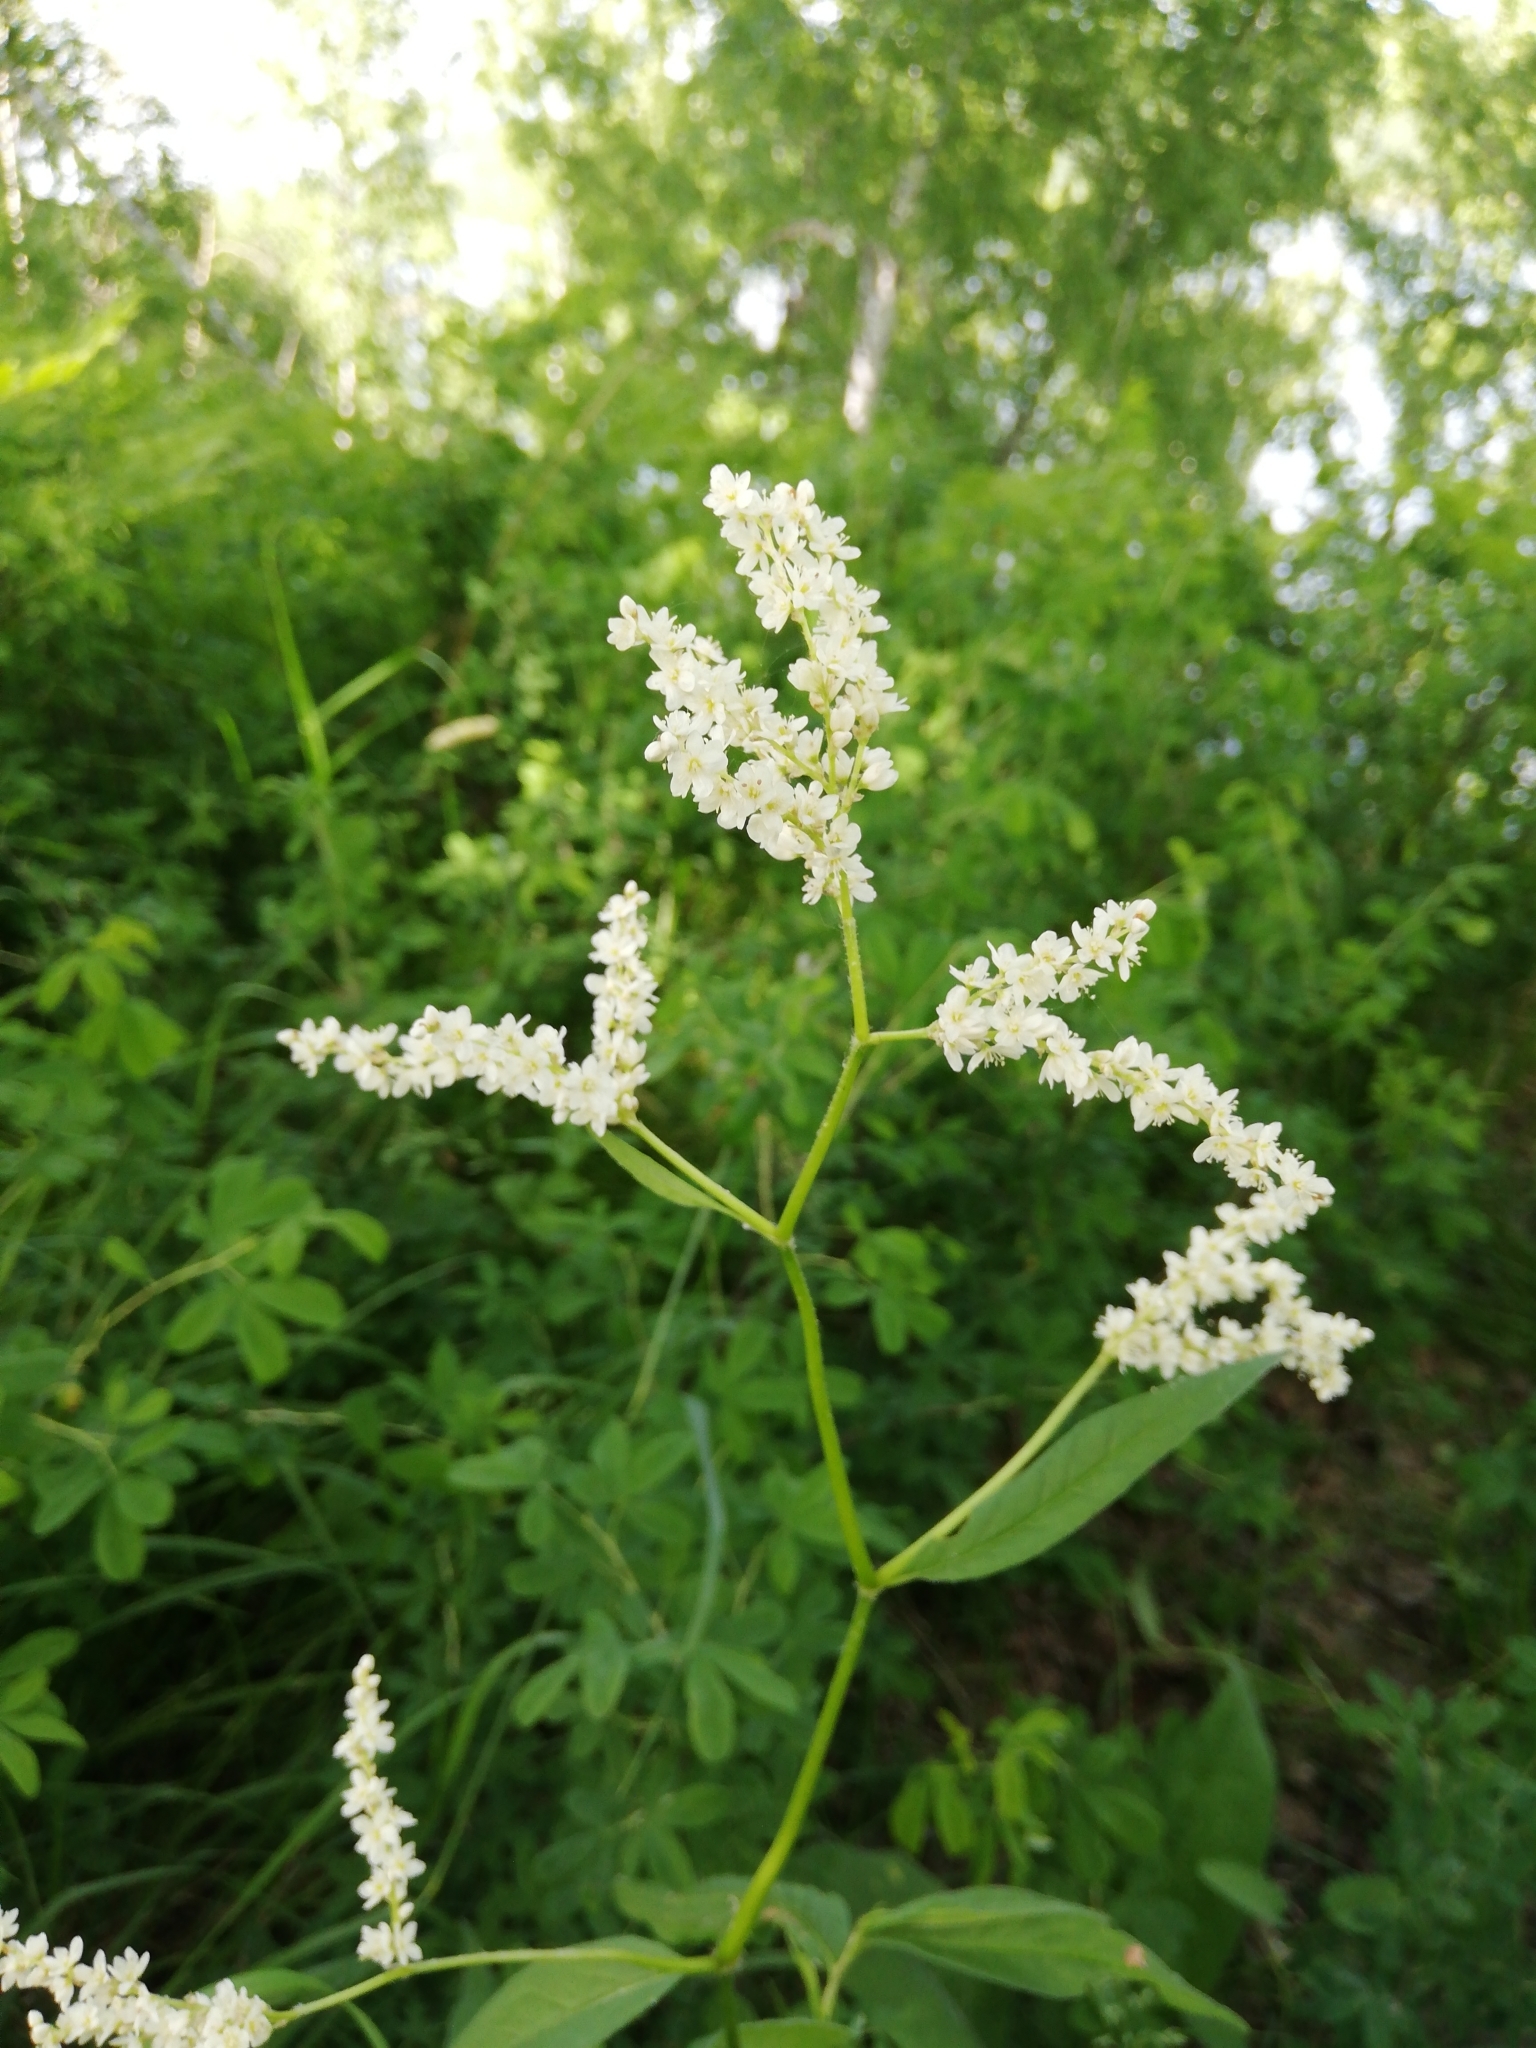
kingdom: Plantae
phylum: Tracheophyta
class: Magnoliopsida
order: Caryophyllales
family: Polygonaceae
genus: Koenigia
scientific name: Koenigia alpina
